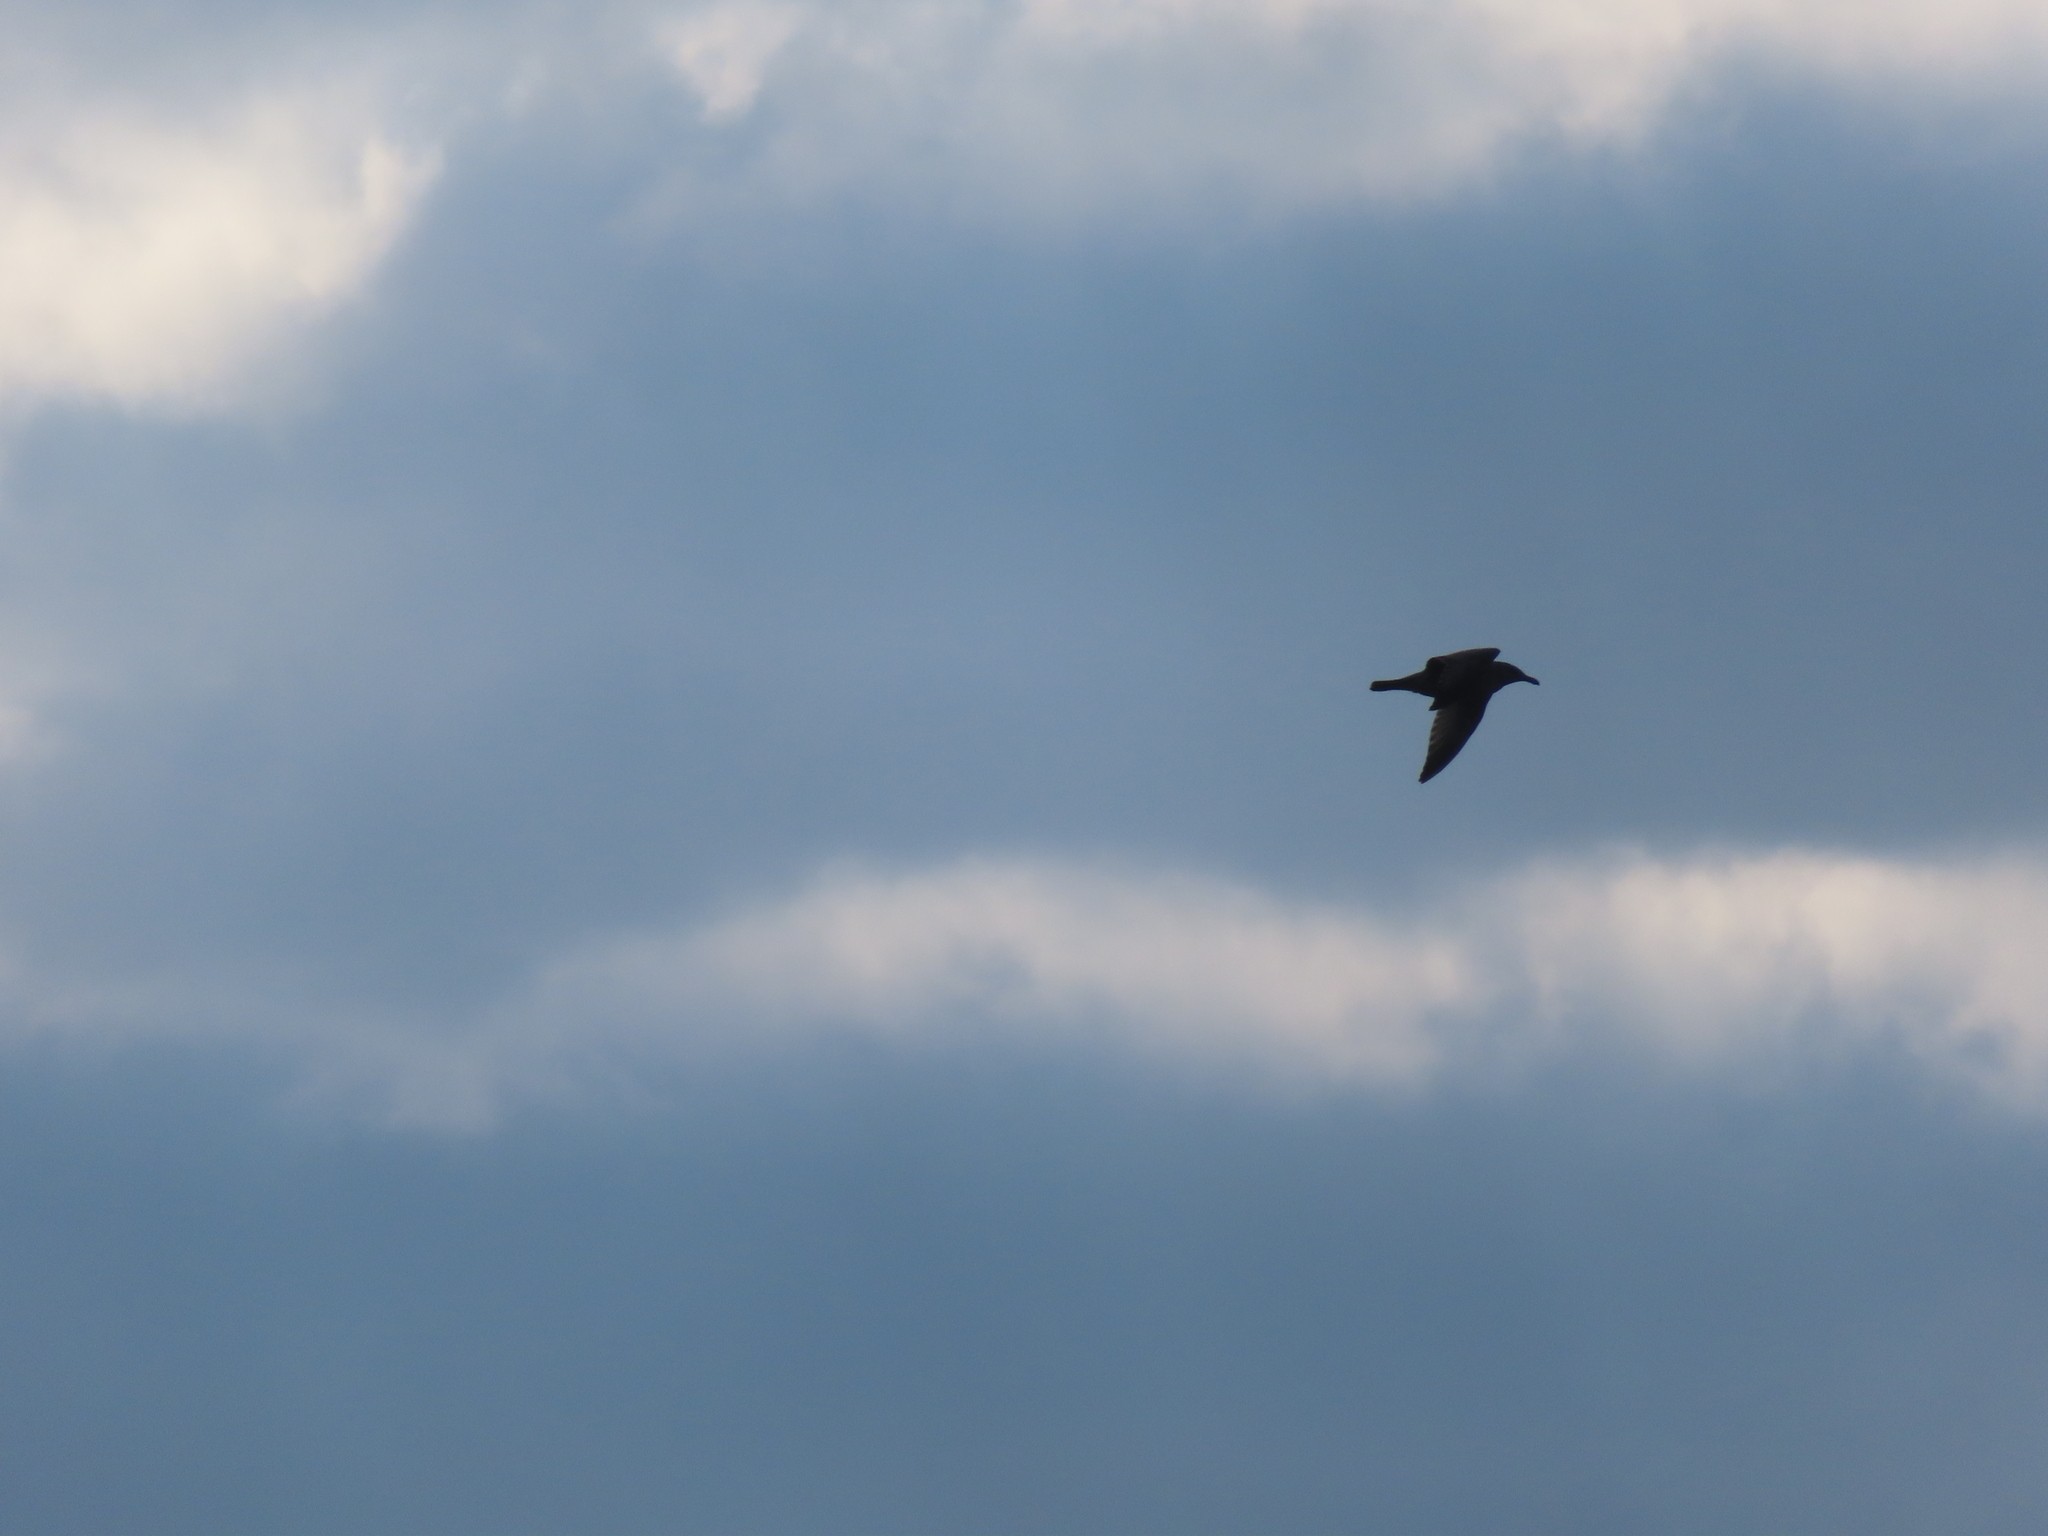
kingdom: Animalia
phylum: Chordata
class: Aves
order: Charadriiformes
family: Laridae
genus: Larus
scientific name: Larus argentatus
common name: Herring gull
